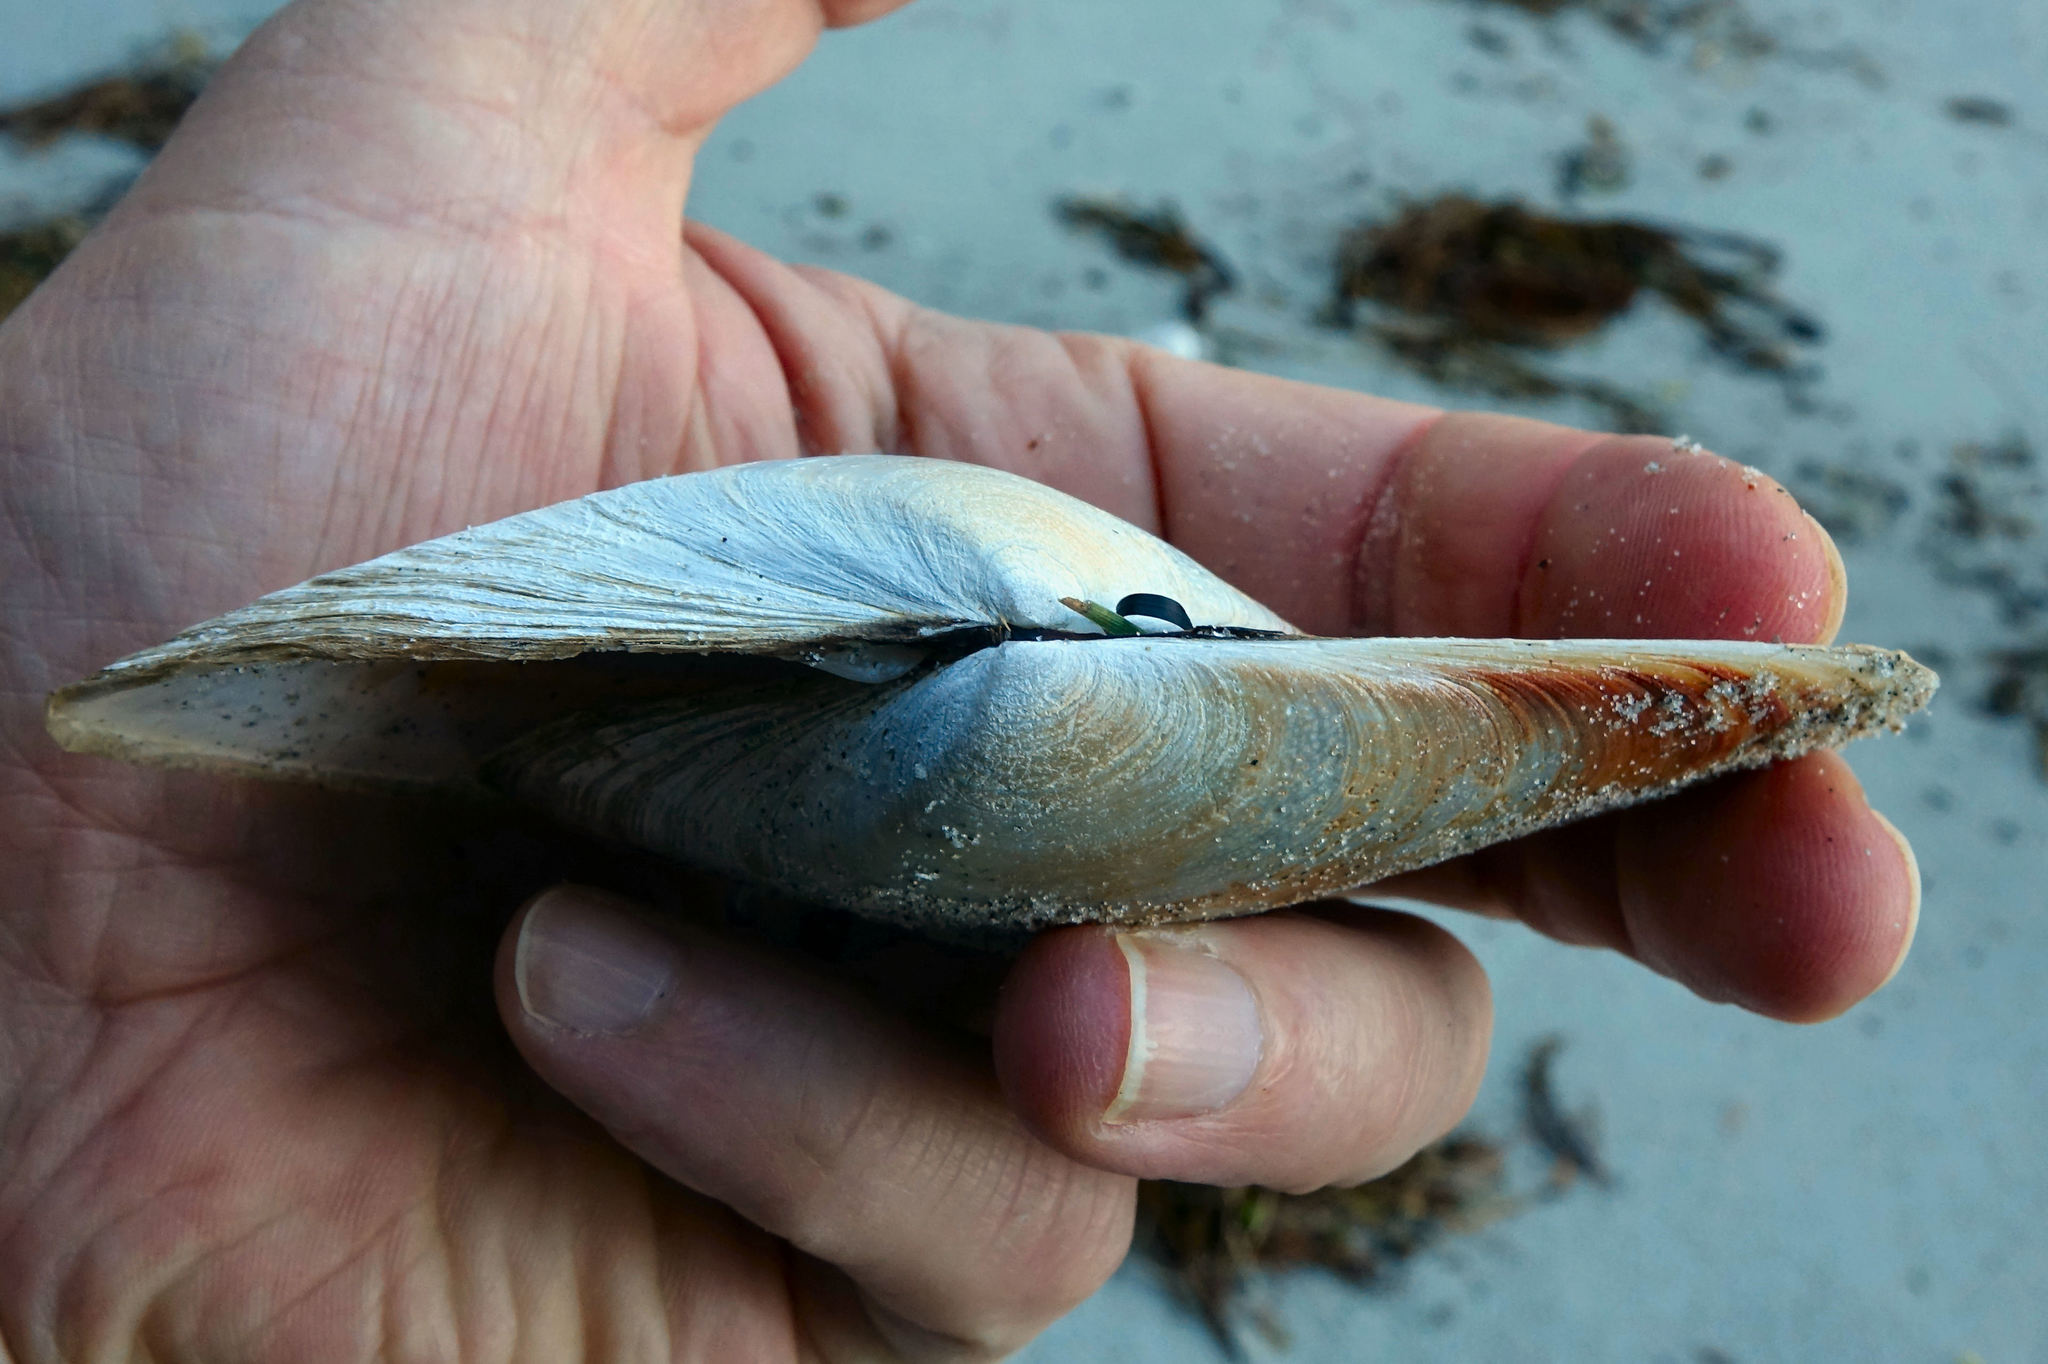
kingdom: Animalia
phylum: Mollusca
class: Bivalvia
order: Venerida
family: Mesodesmatidae
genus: Paphies
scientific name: Paphies donacina
